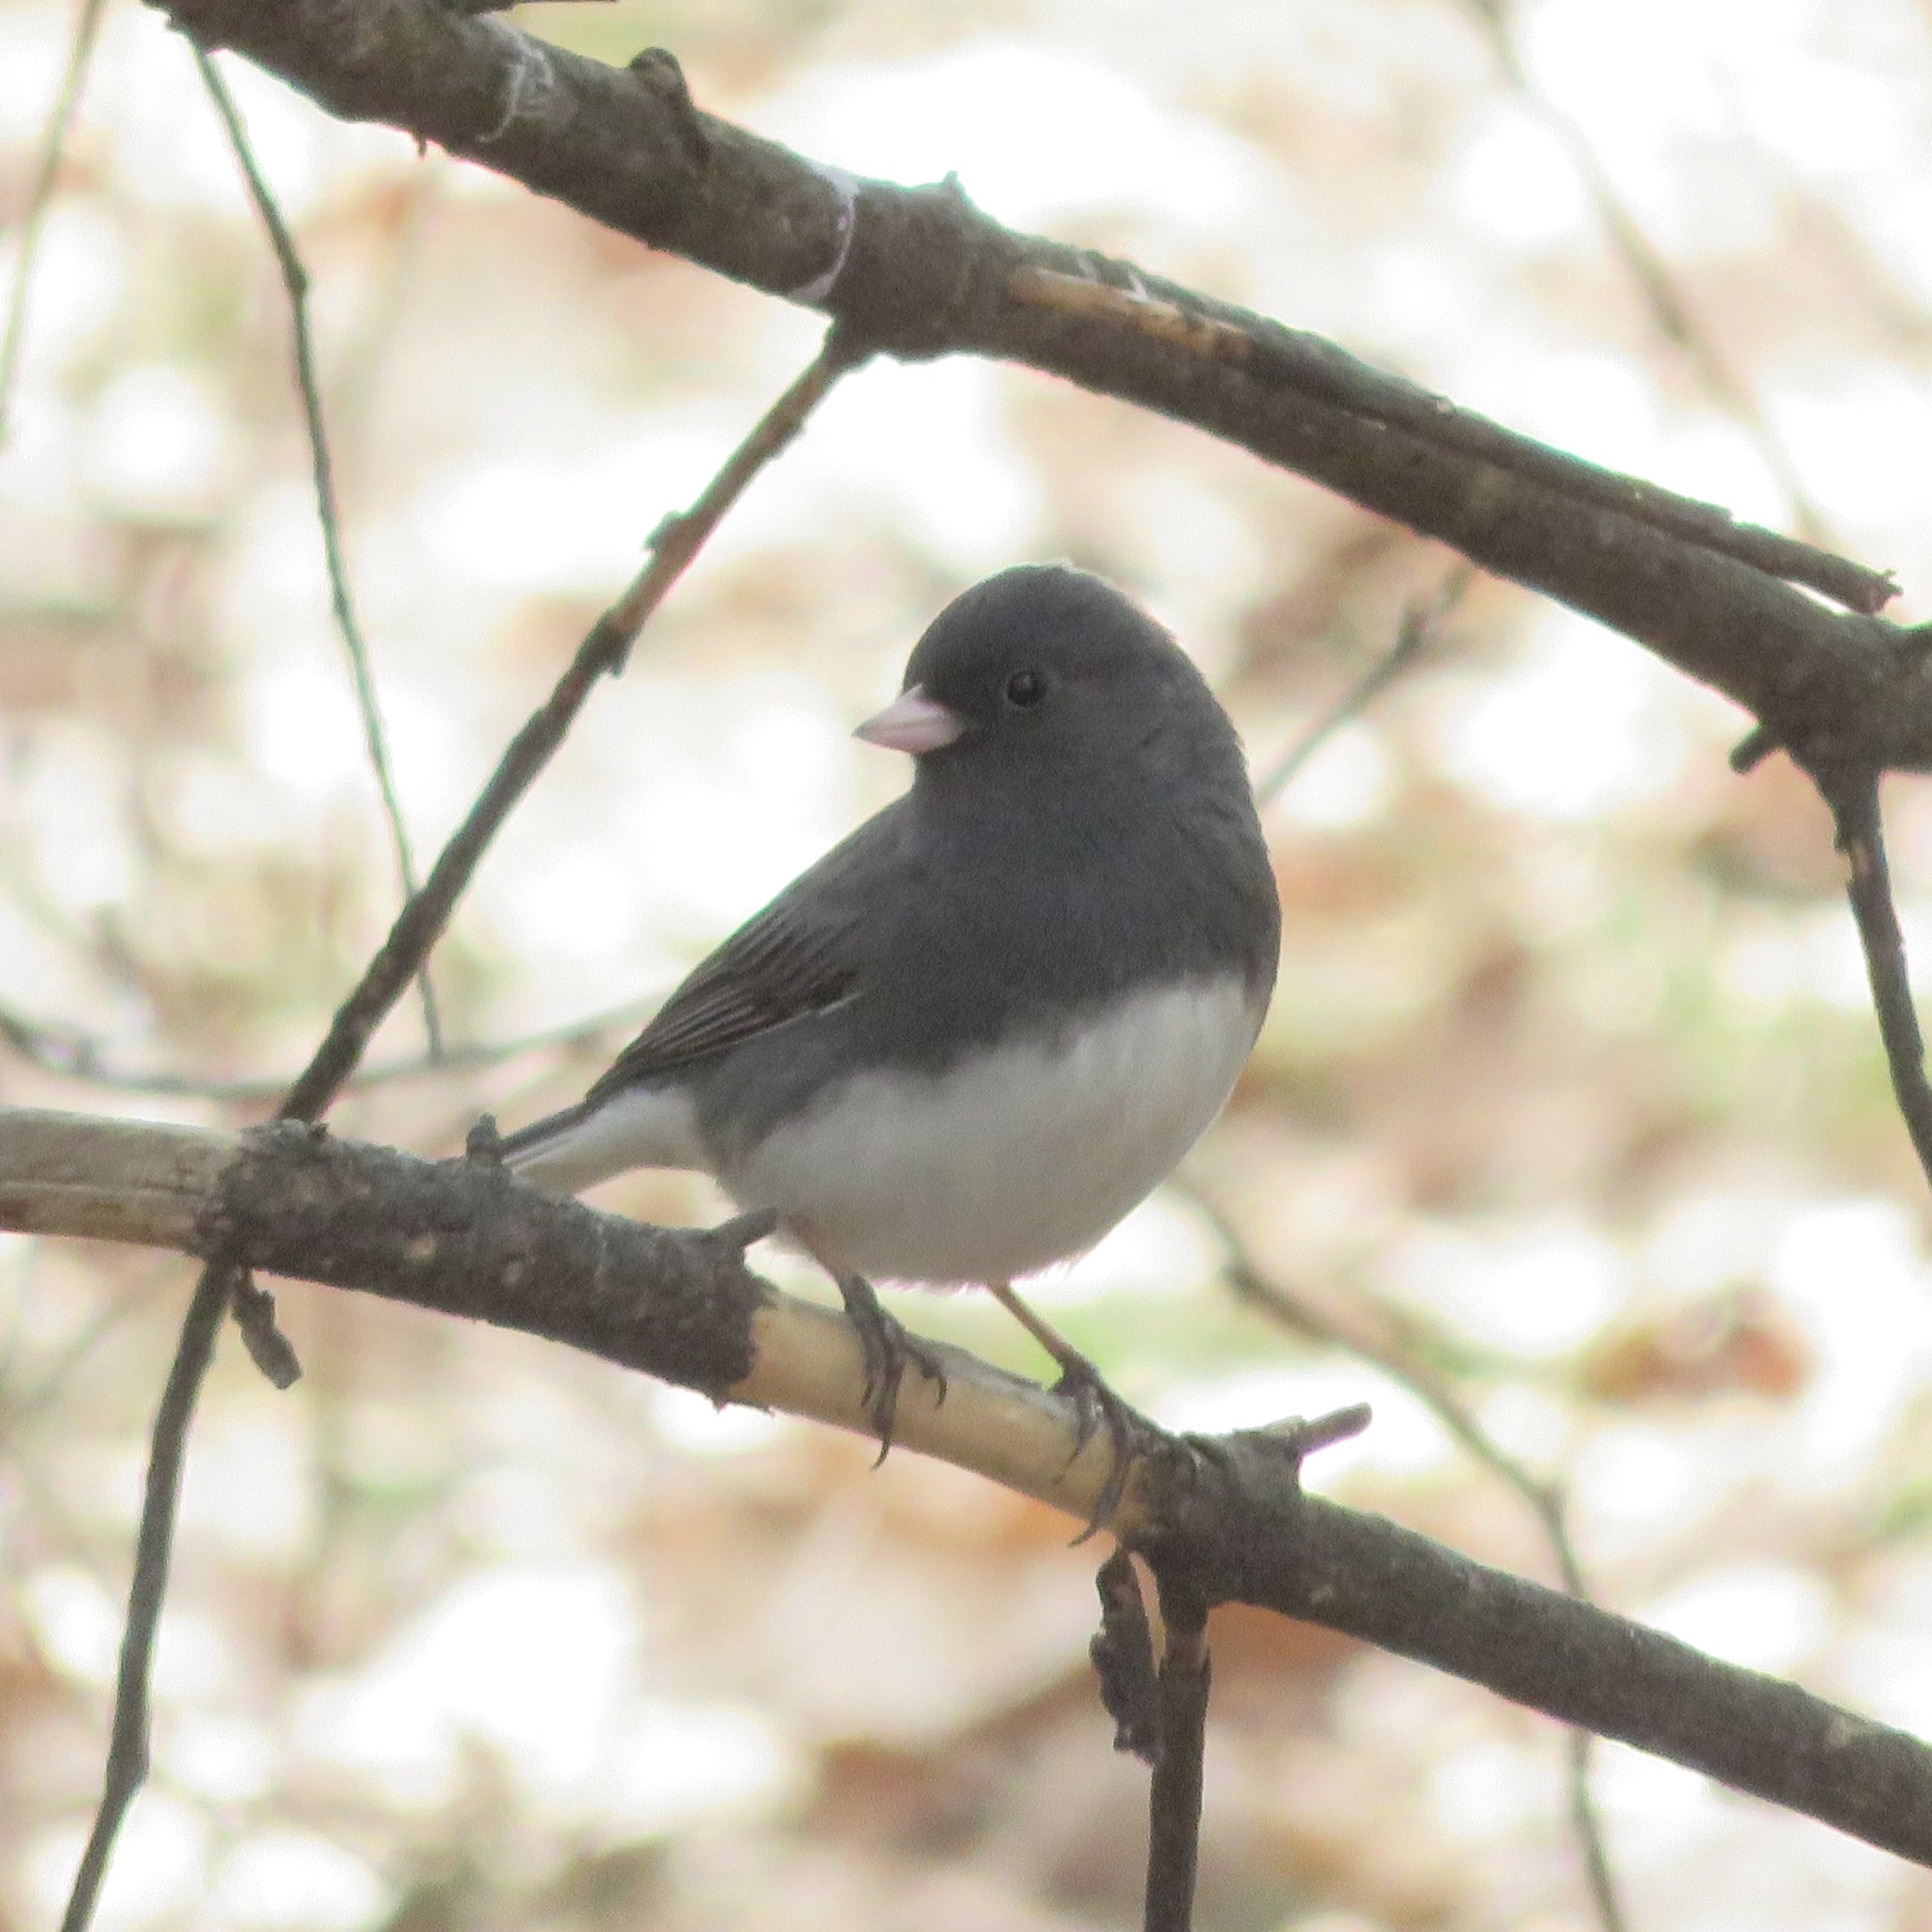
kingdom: Animalia
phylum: Chordata
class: Aves
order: Passeriformes
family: Passerellidae
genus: Junco
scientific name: Junco hyemalis
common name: Dark-eyed junco
